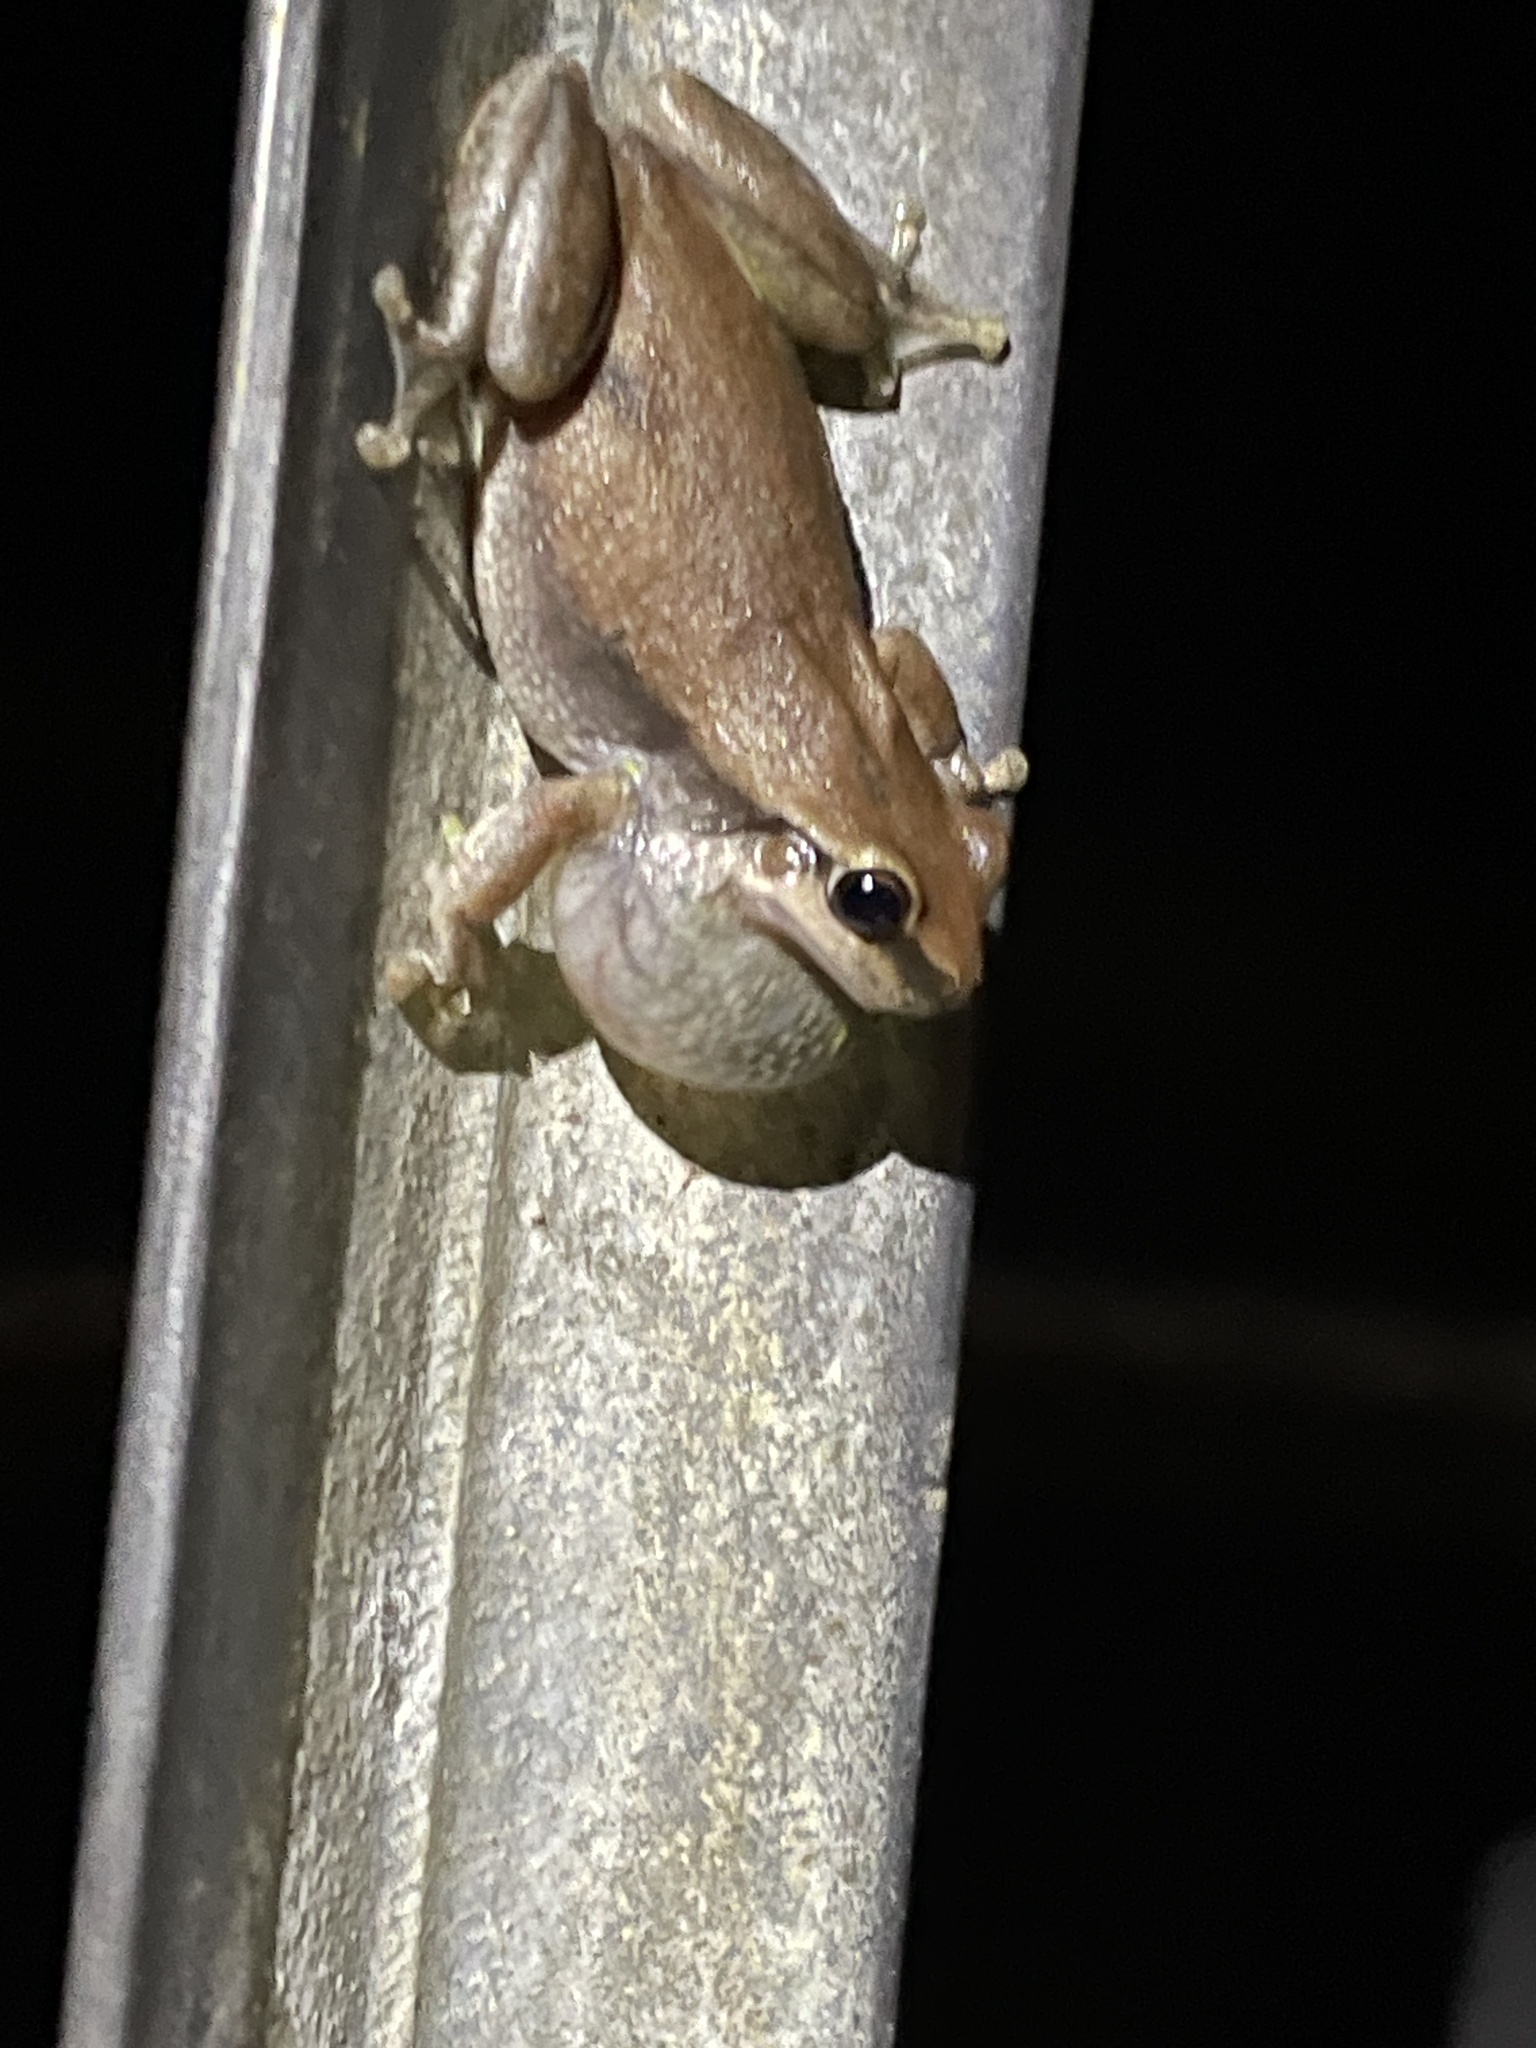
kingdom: Animalia
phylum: Chordata
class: Amphibia
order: Anura
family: Pelodryadidae
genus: Litoria
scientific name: Litoria rubella
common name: Desert tree frog
